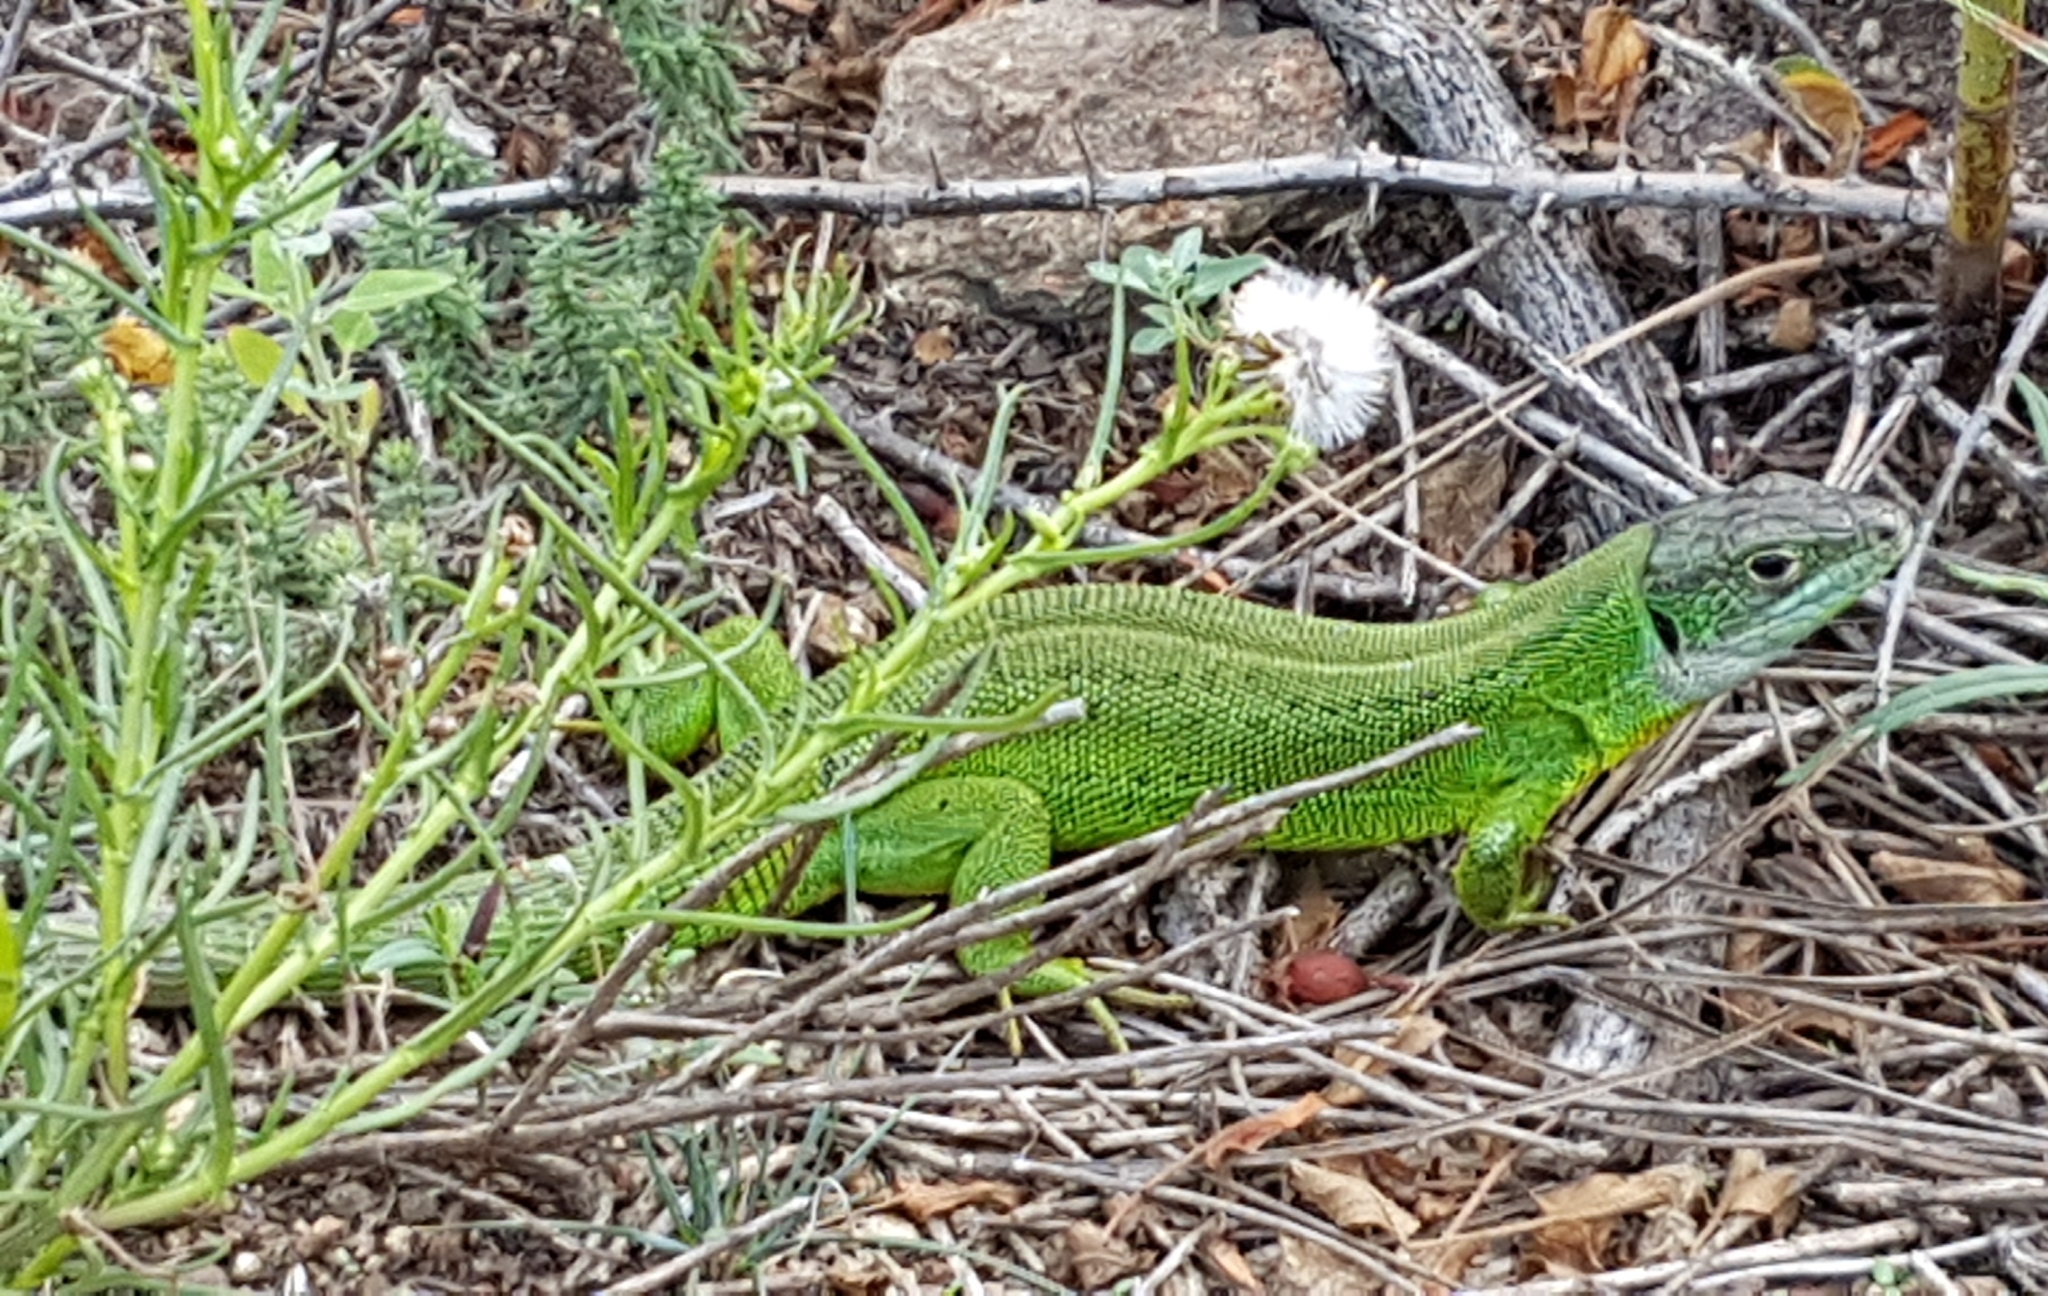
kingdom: Animalia
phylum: Chordata
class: Squamata
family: Lacertidae
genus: Lacerta
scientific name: Lacerta bilineata
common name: Western green lizard
